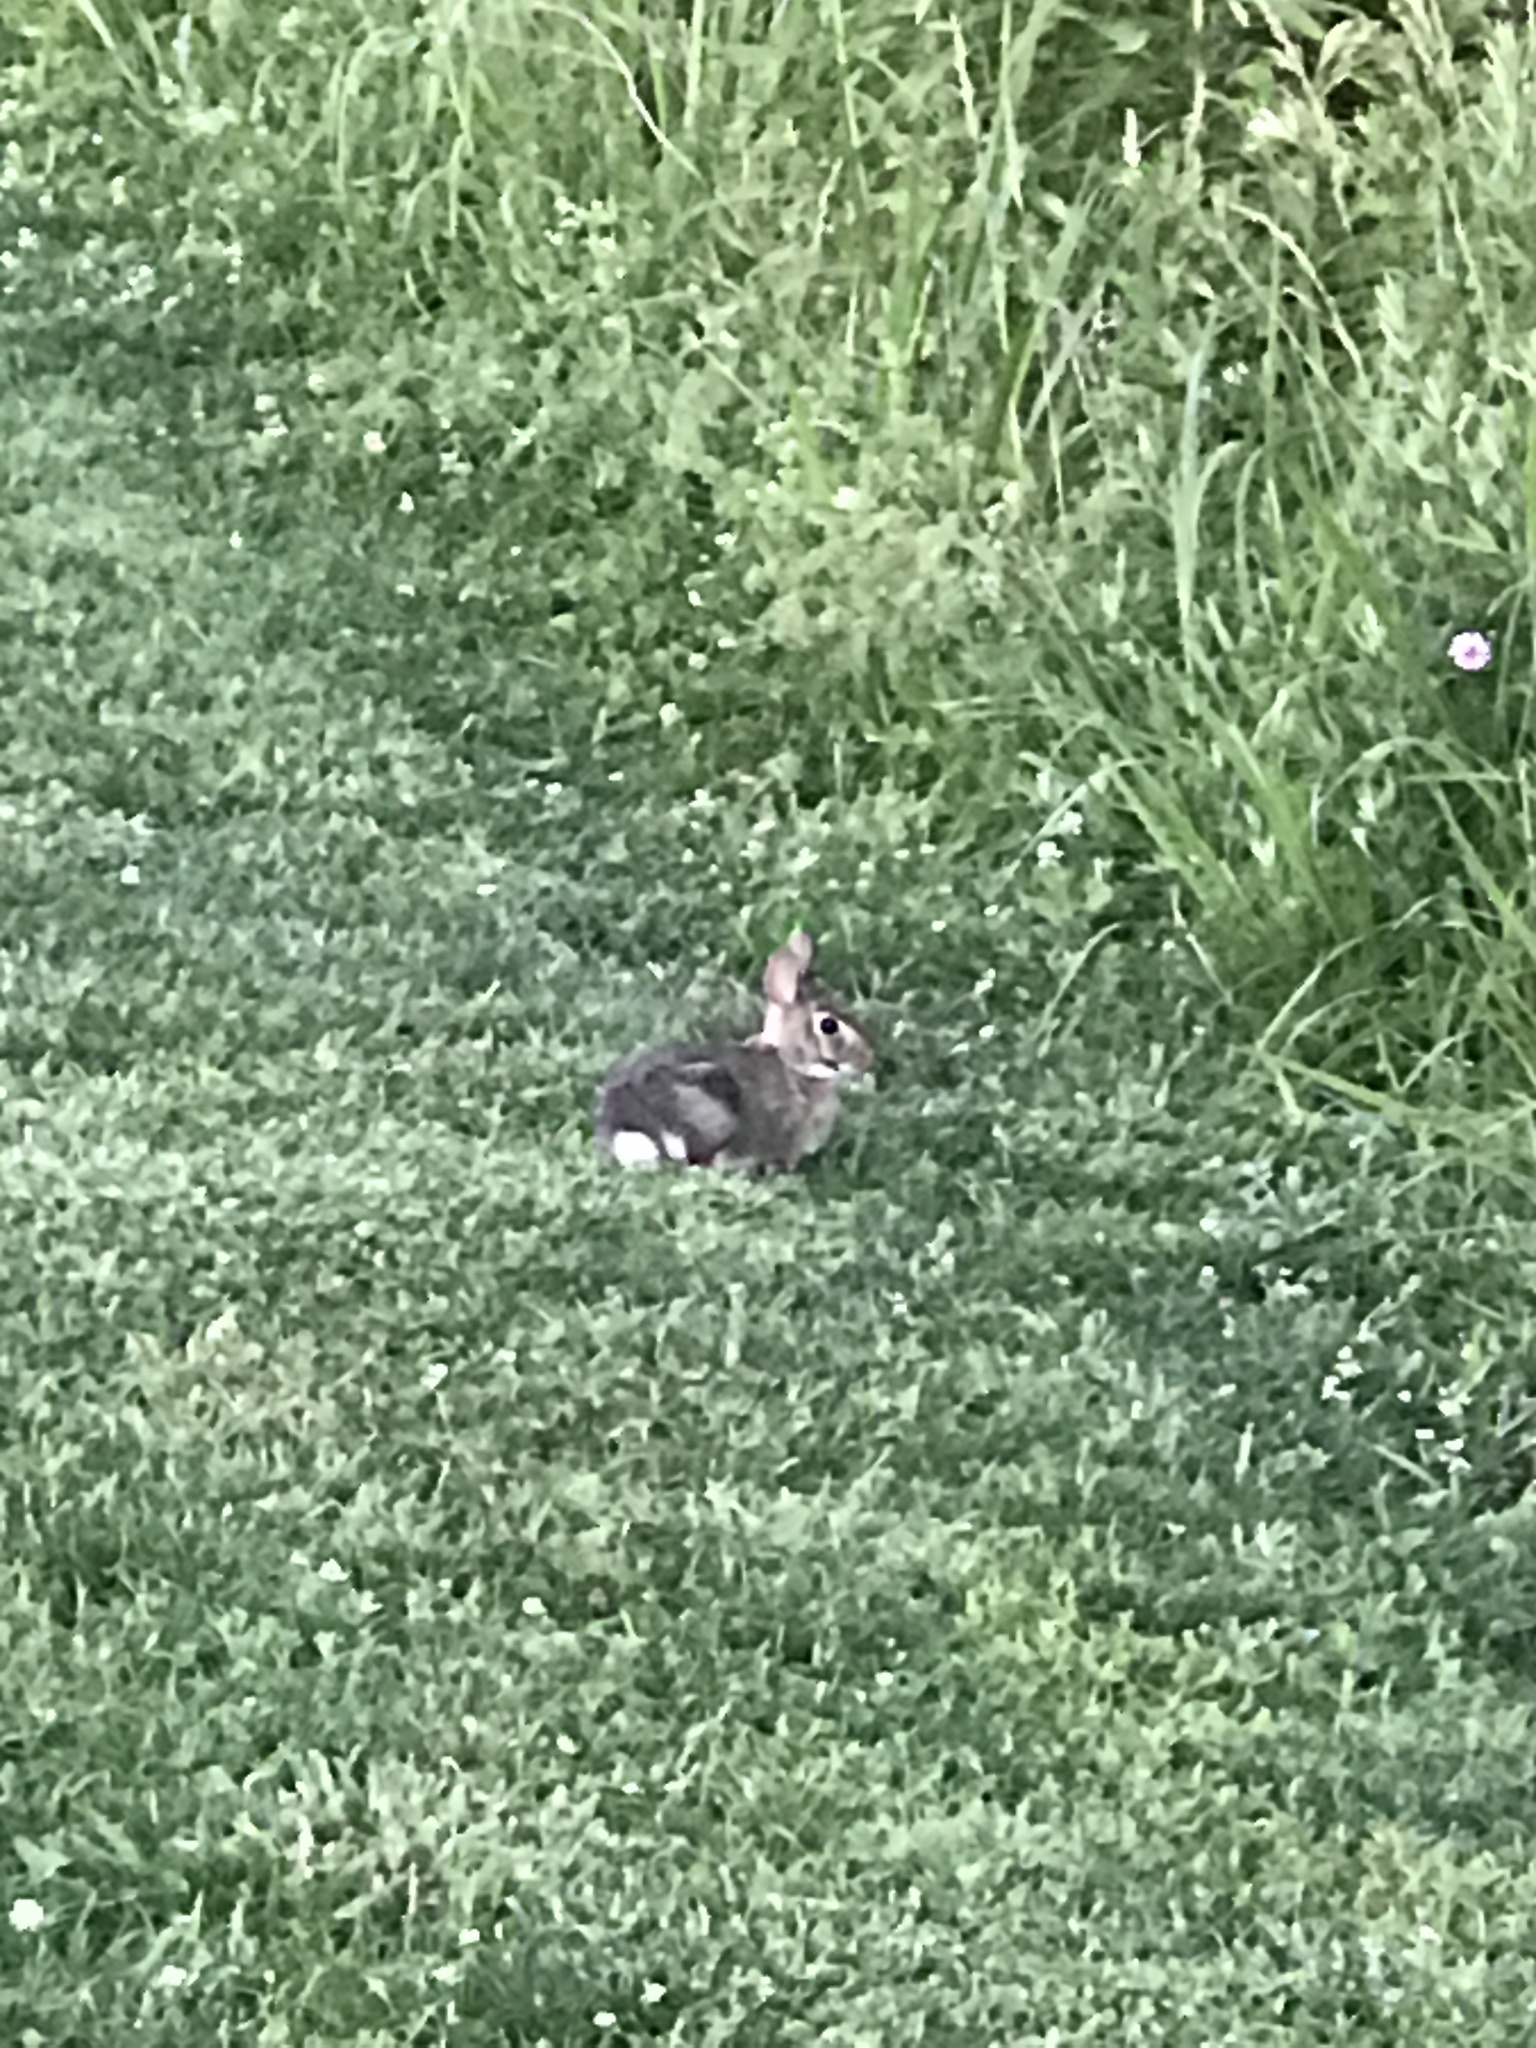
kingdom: Animalia
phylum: Chordata
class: Mammalia
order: Lagomorpha
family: Leporidae
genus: Sylvilagus
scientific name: Sylvilagus floridanus
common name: Eastern cottontail
